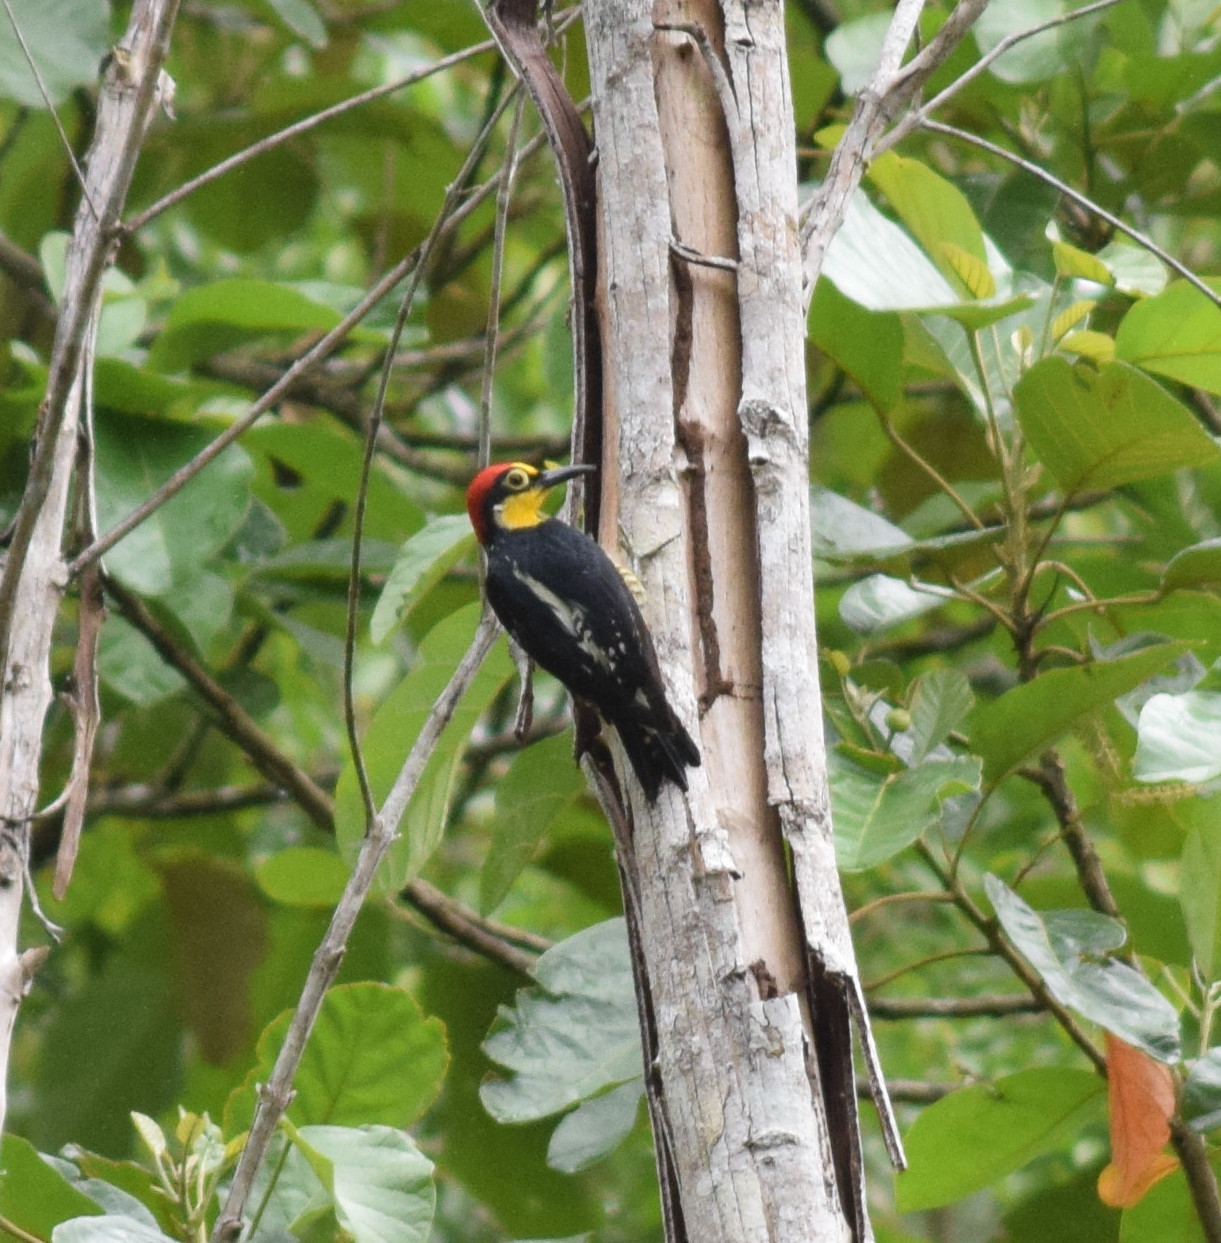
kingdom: Animalia
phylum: Chordata
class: Aves
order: Piciformes
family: Picidae
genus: Melanerpes
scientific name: Melanerpes flavifrons
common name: Yellow-fronted woodpecker
